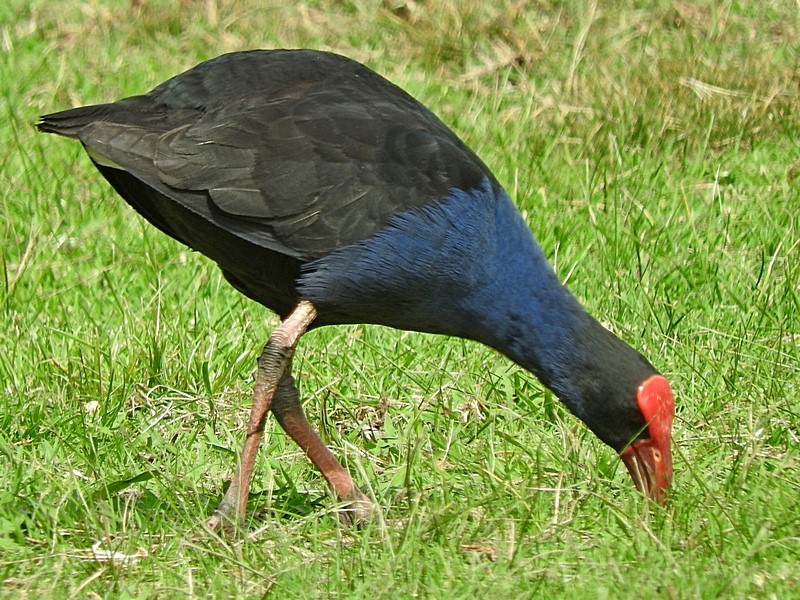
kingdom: Animalia
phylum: Chordata
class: Aves
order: Gruiformes
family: Rallidae
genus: Porphyrio
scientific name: Porphyrio melanotus
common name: Australasian swamphen
